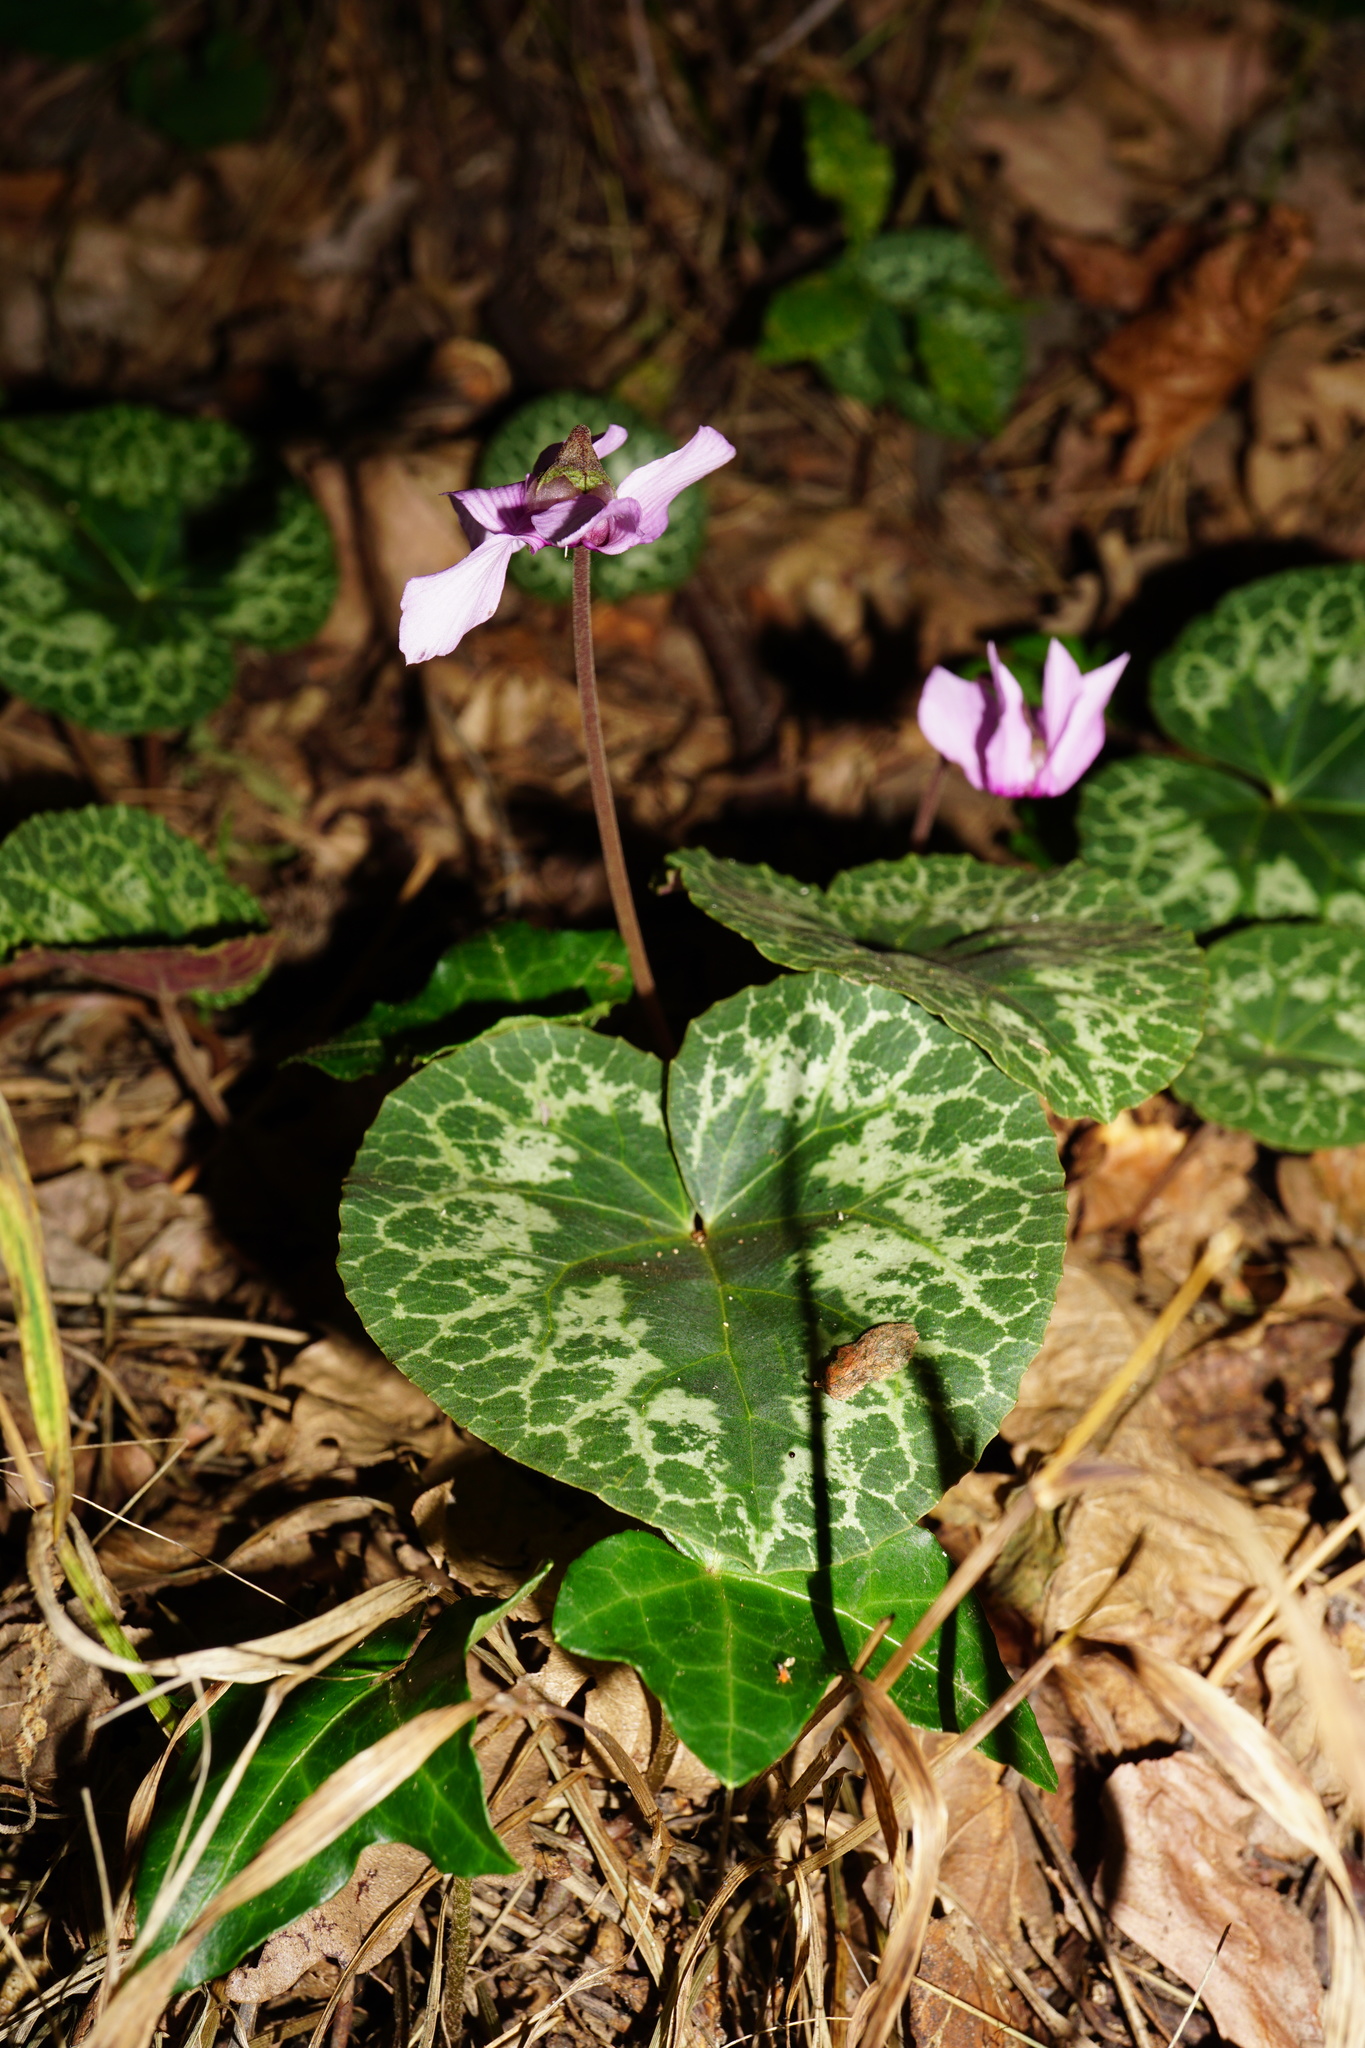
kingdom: Plantae
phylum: Tracheophyta
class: Magnoliopsida
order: Ericales
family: Primulaceae
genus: Cyclamen
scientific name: Cyclamen purpurascens
